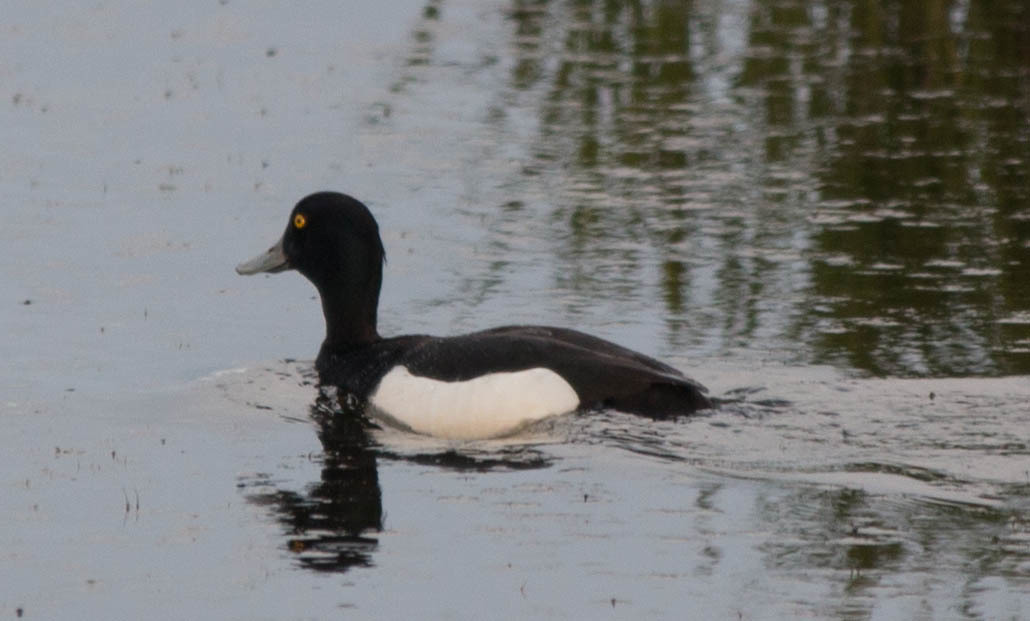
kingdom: Animalia
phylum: Chordata
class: Aves
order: Anseriformes
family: Anatidae
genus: Aythya
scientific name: Aythya fuligula
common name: Tufted duck
